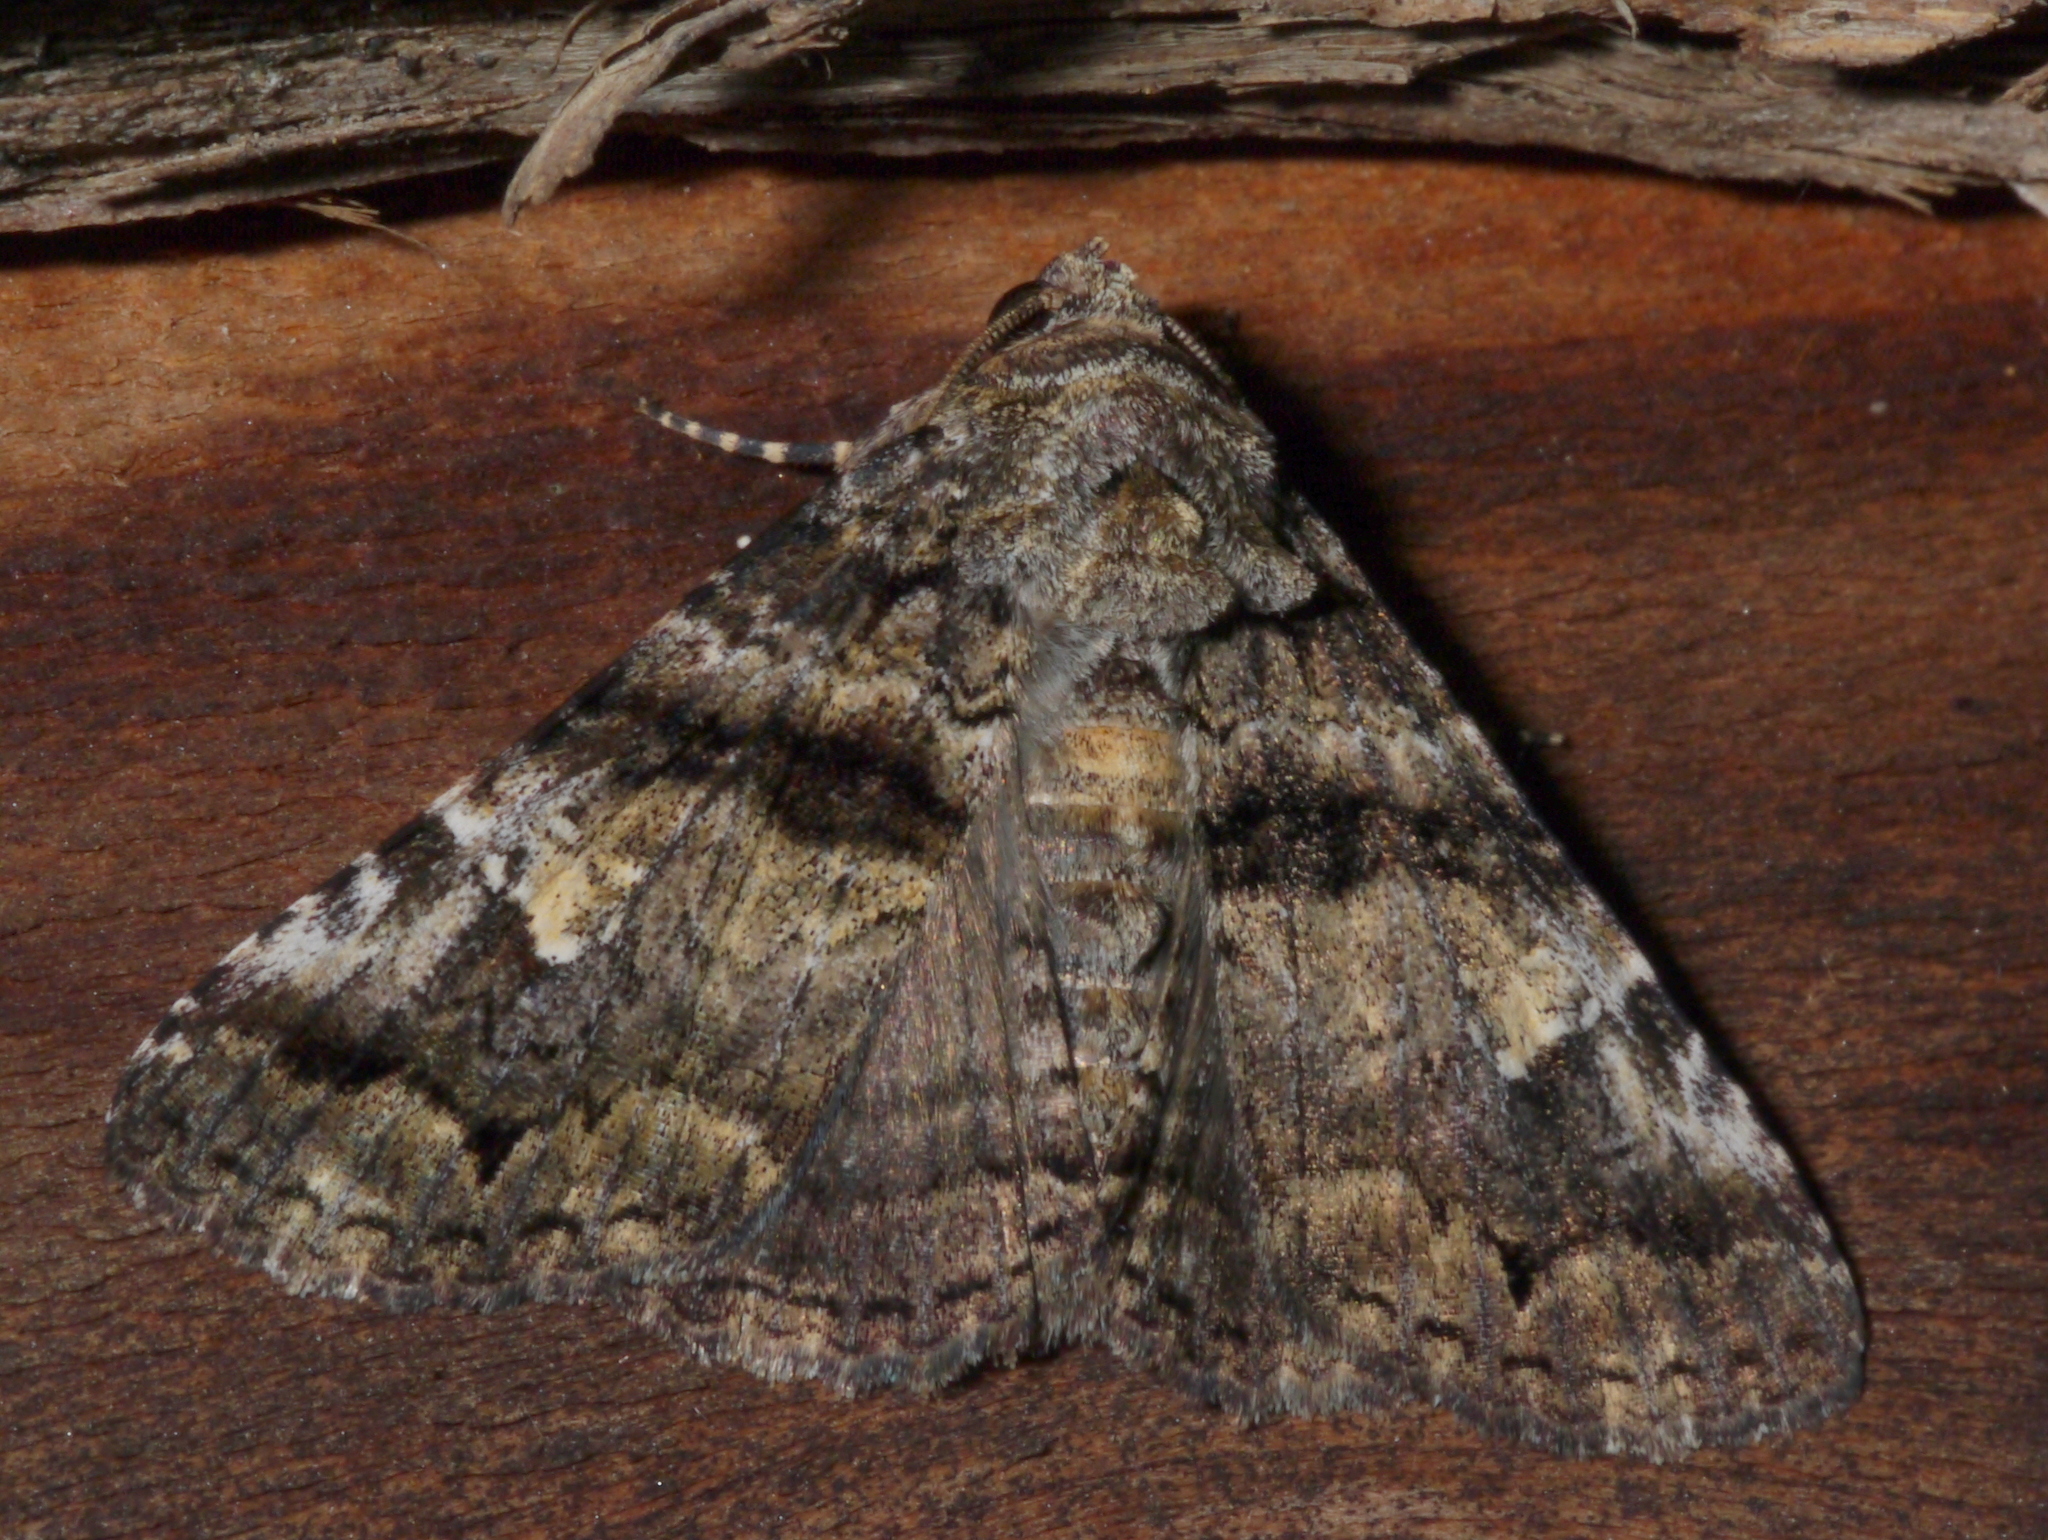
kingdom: Animalia
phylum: Arthropoda
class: Insecta
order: Lepidoptera
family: Erebidae
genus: Metria
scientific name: Metria amella
